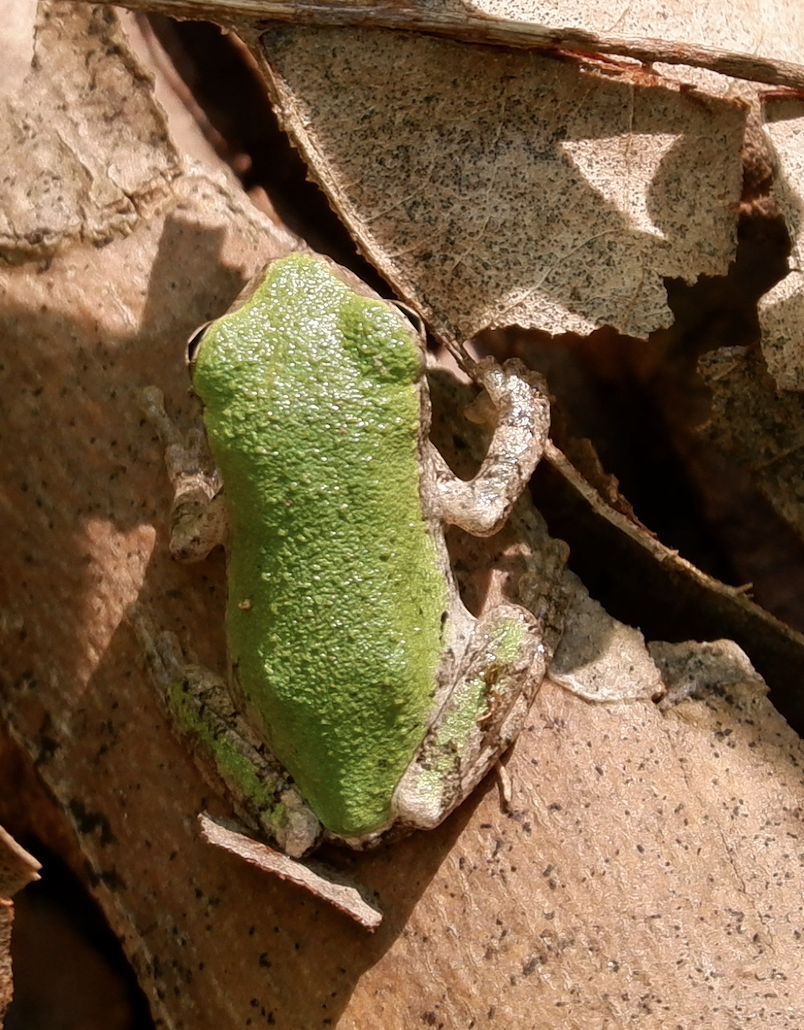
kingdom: Animalia
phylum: Chordata
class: Amphibia
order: Anura
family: Hylidae
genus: Dryophytes
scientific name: Dryophytes versicolor
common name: Gray treefrog
